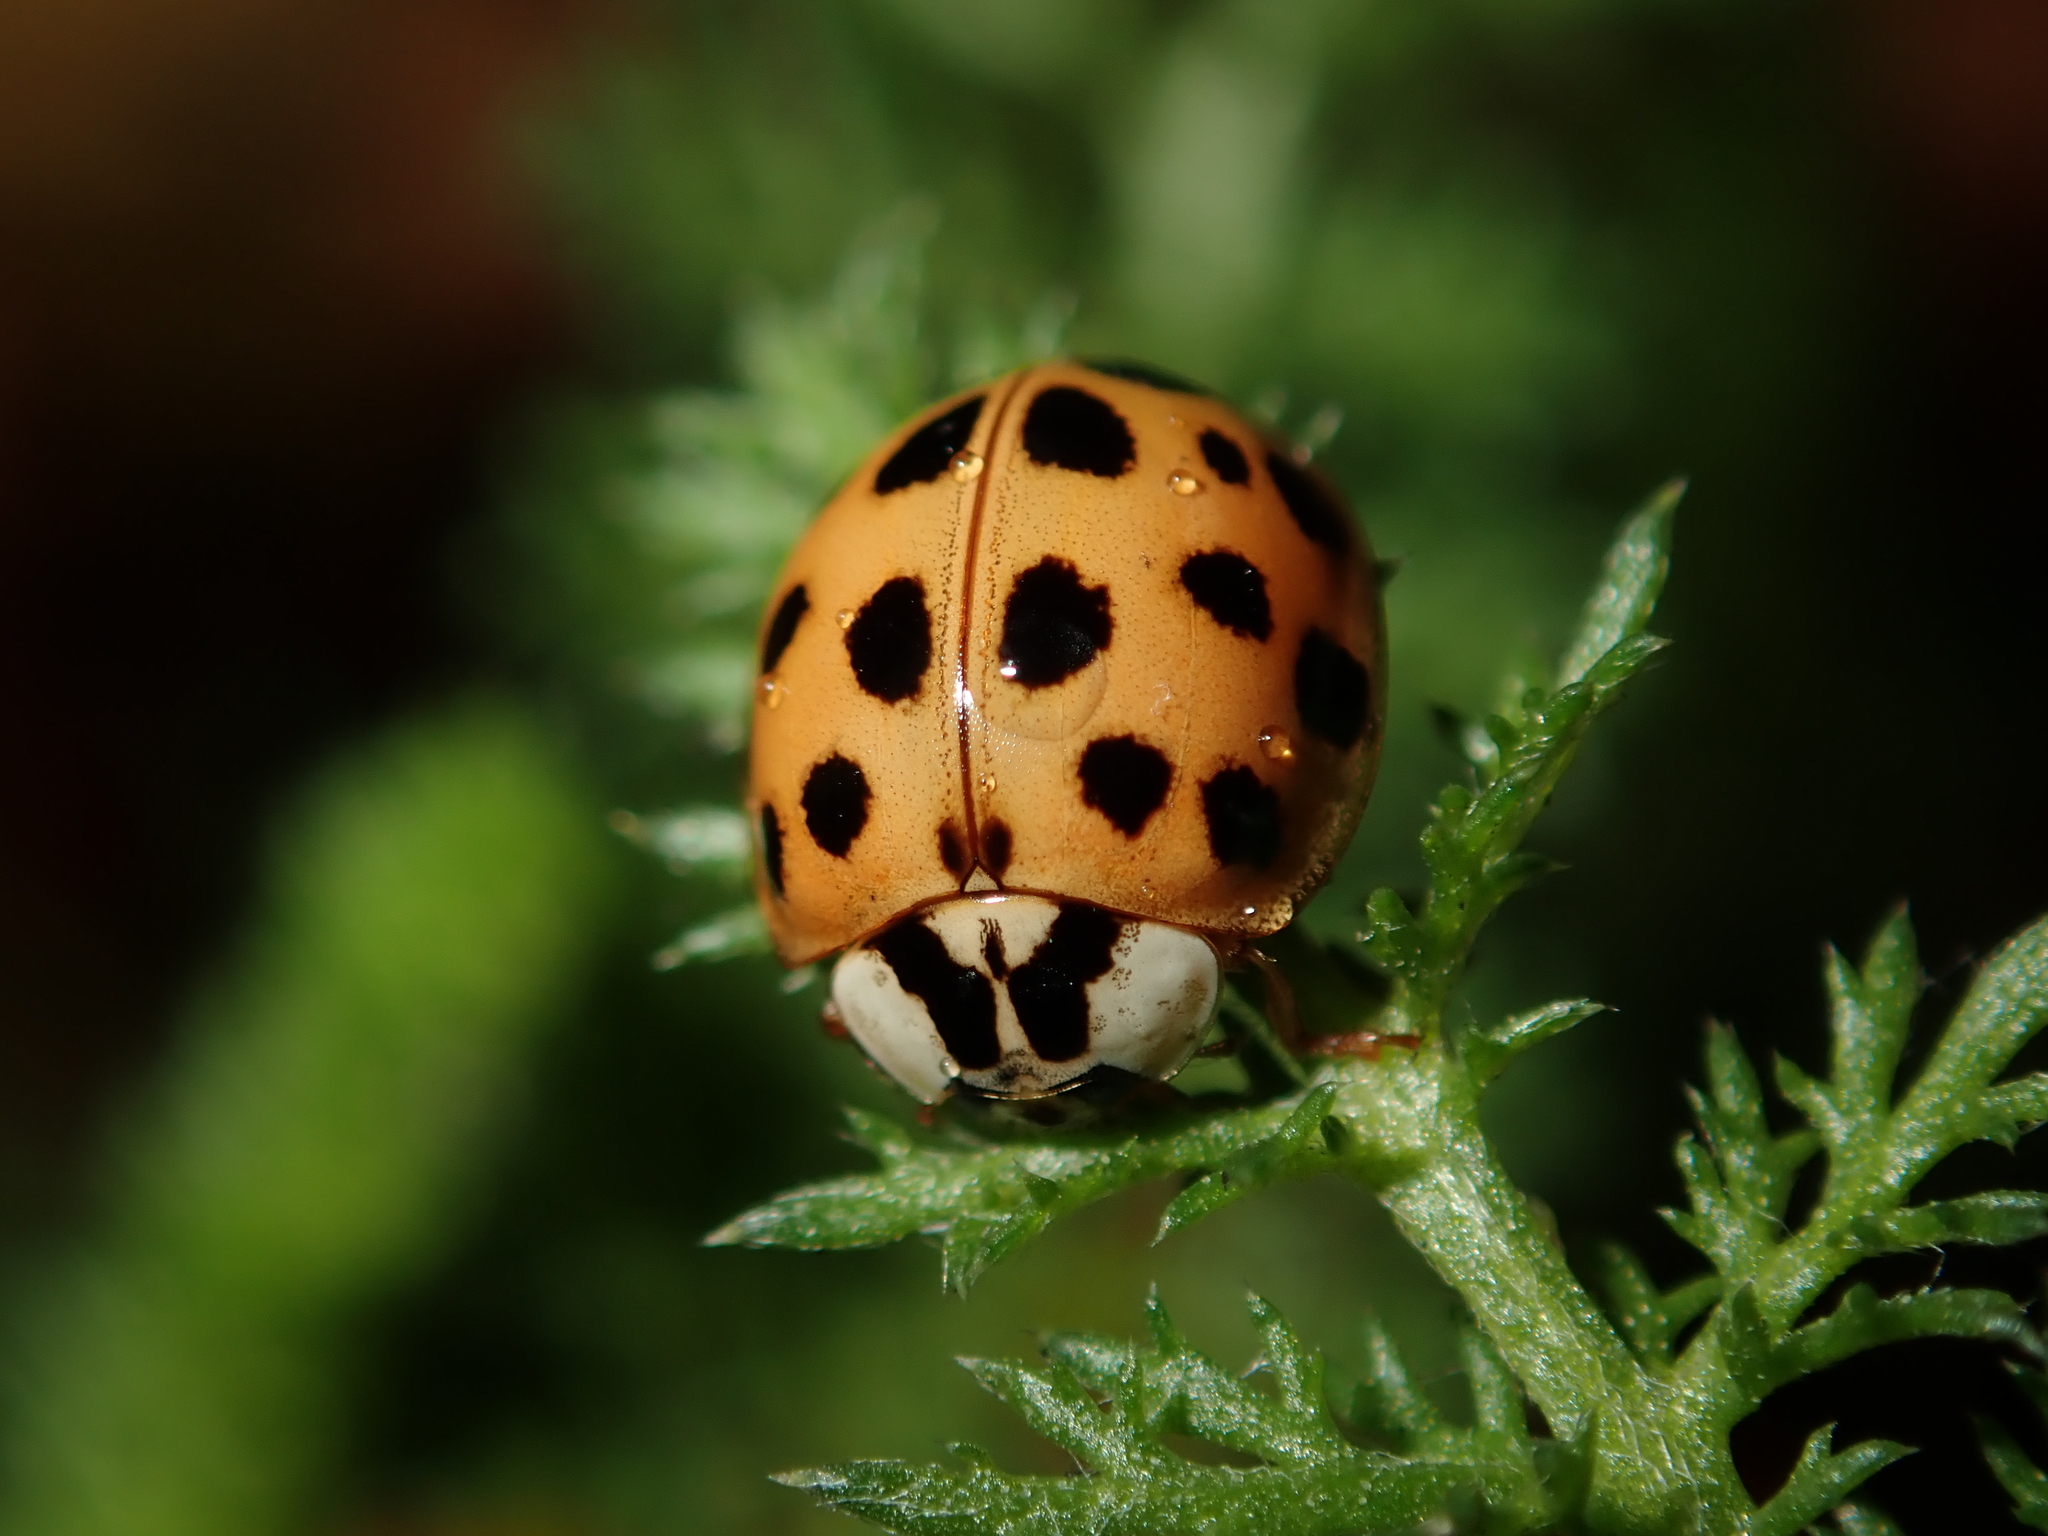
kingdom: Animalia
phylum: Arthropoda
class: Insecta
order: Coleoptera
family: Coccinellidae
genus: Harmonia
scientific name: Harmonia axyridis
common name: Harlequin ladybird
